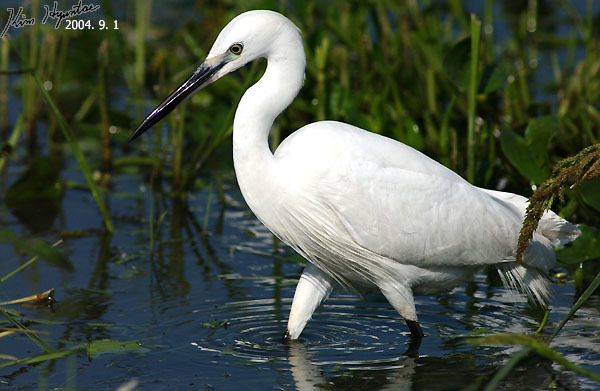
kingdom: Animalia
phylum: Chordata
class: Aves
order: Pelecaniformes
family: Ardeidae
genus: Egretta
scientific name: Egretta garzetta
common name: Little egret
